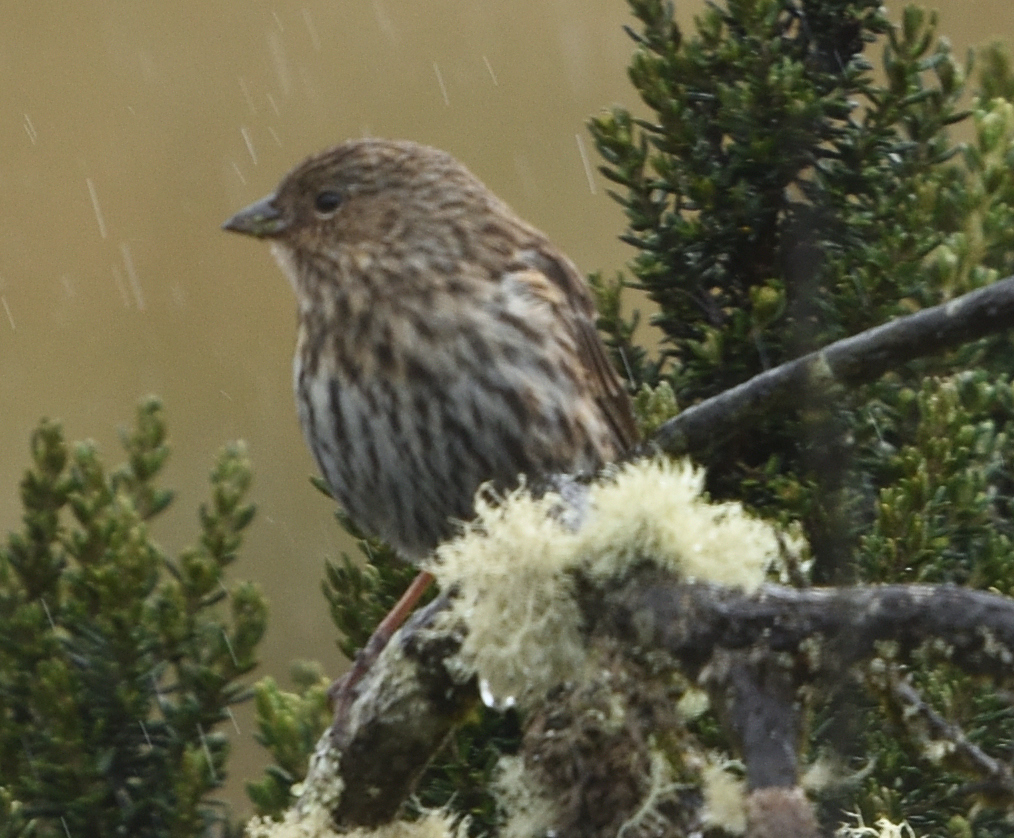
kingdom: Animalia
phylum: Chordata
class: Aves
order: Passeriformes
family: Thraupidae
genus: Geospizopsis
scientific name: Geospizopsis unicolor
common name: Plumbeous sierra-finch
